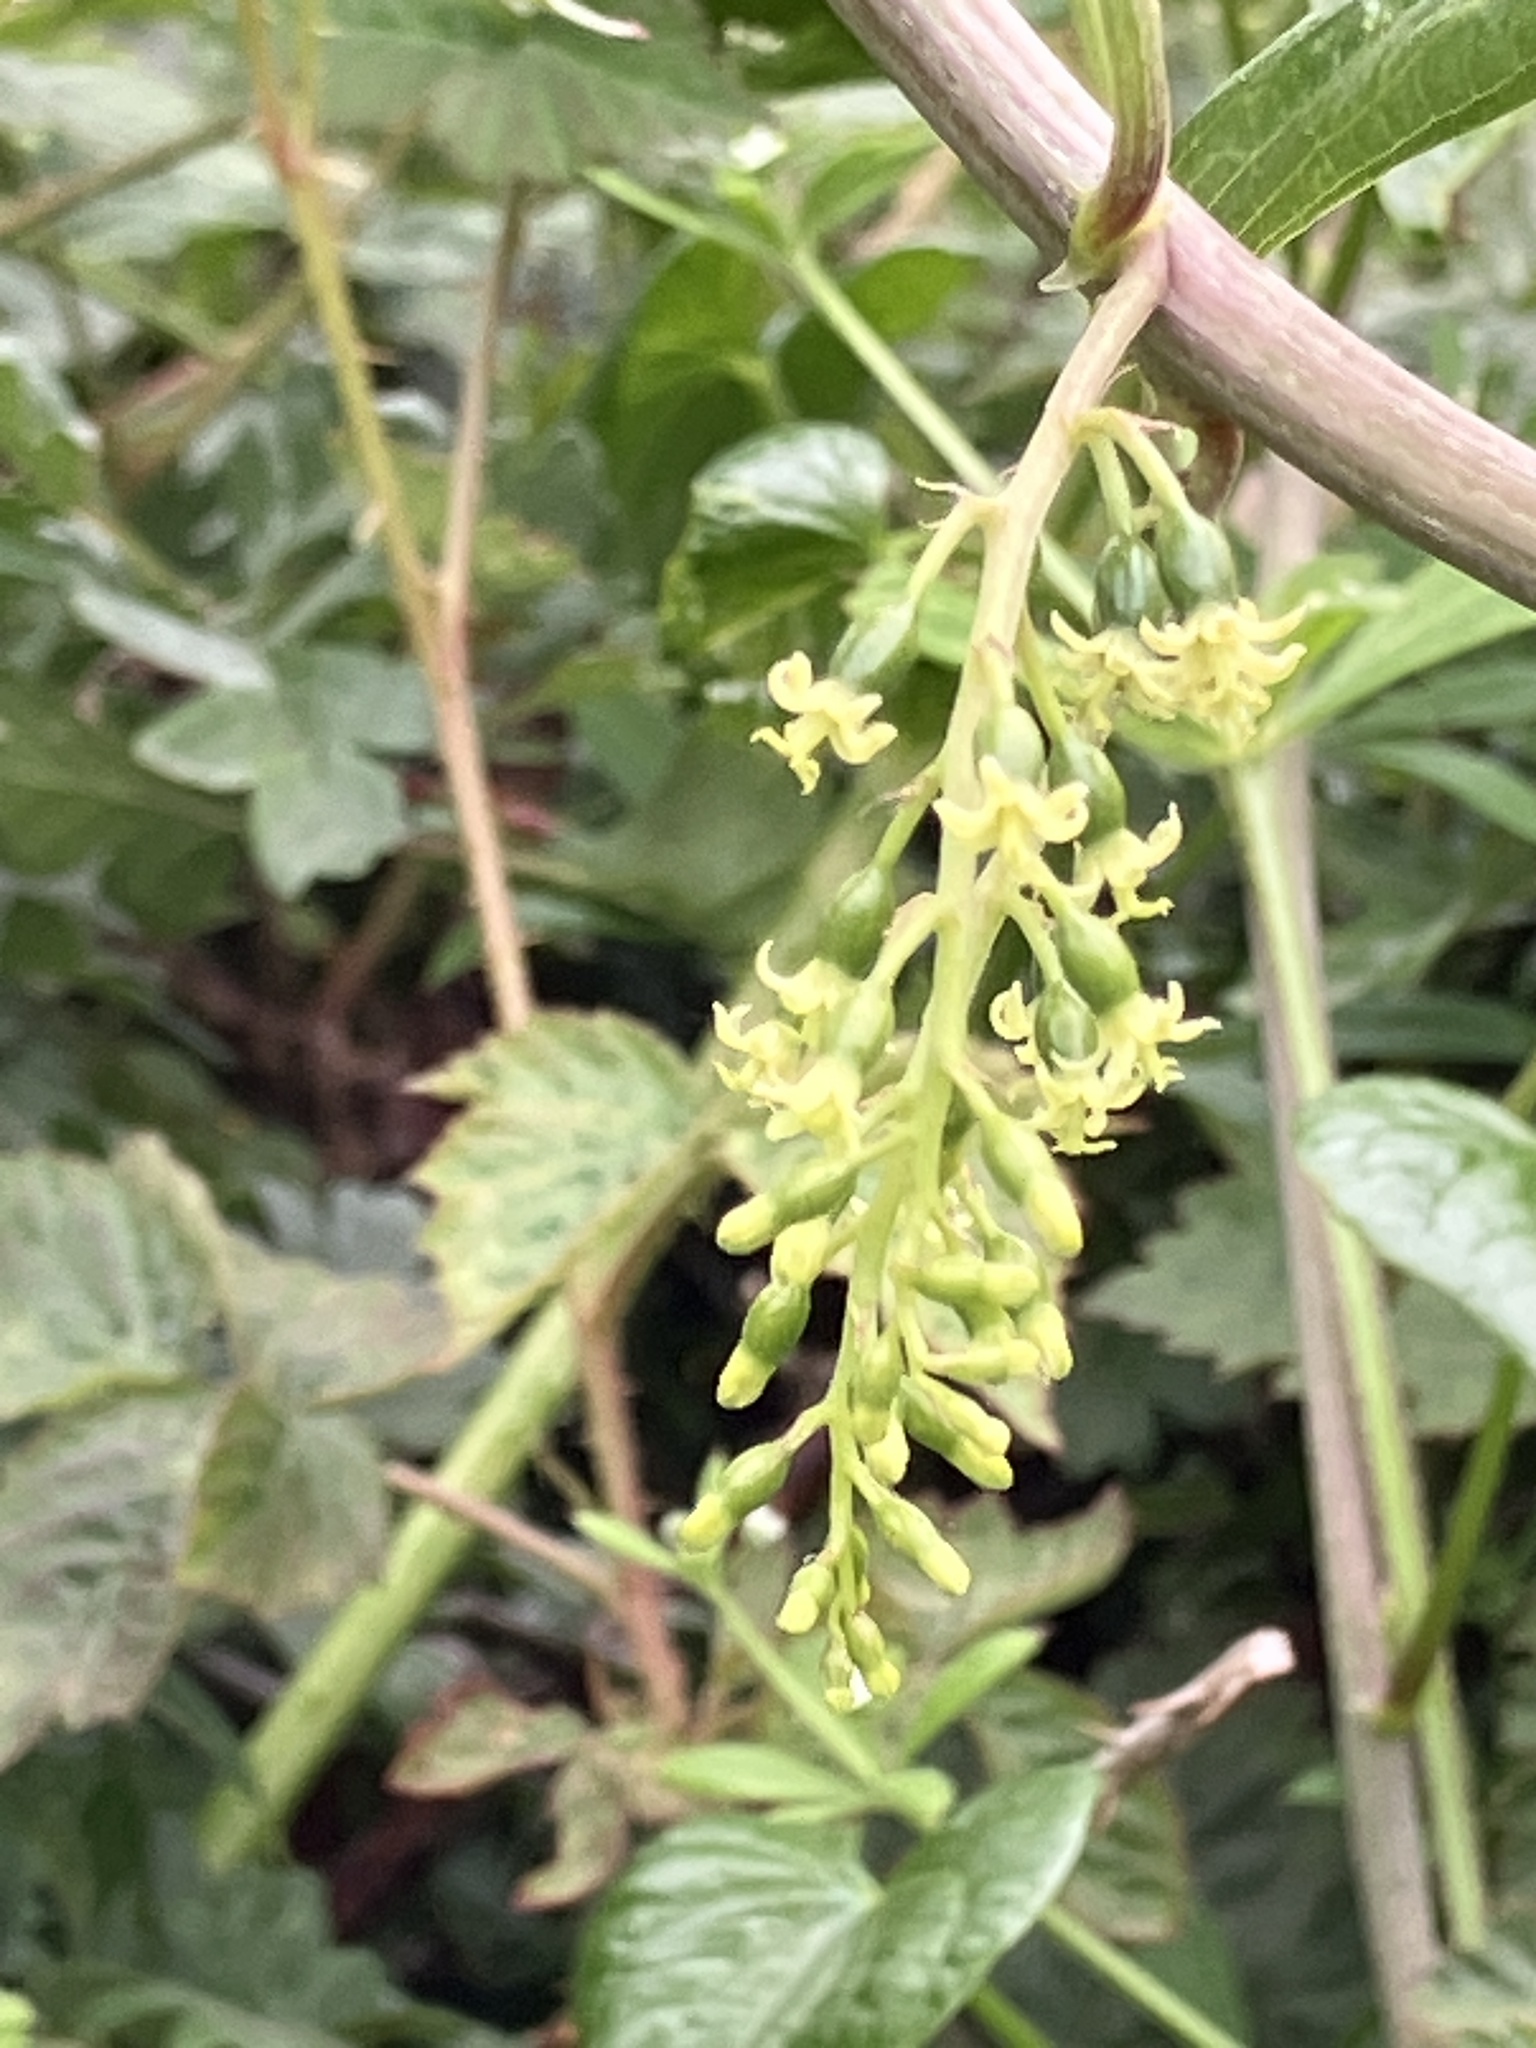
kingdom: Plantae
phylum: Tracheophyta
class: Liliopsida
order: Dioscoreales
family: Dioscoreaceae
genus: Dioscorea
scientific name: Dioscorea communis
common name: Black-bindweed
